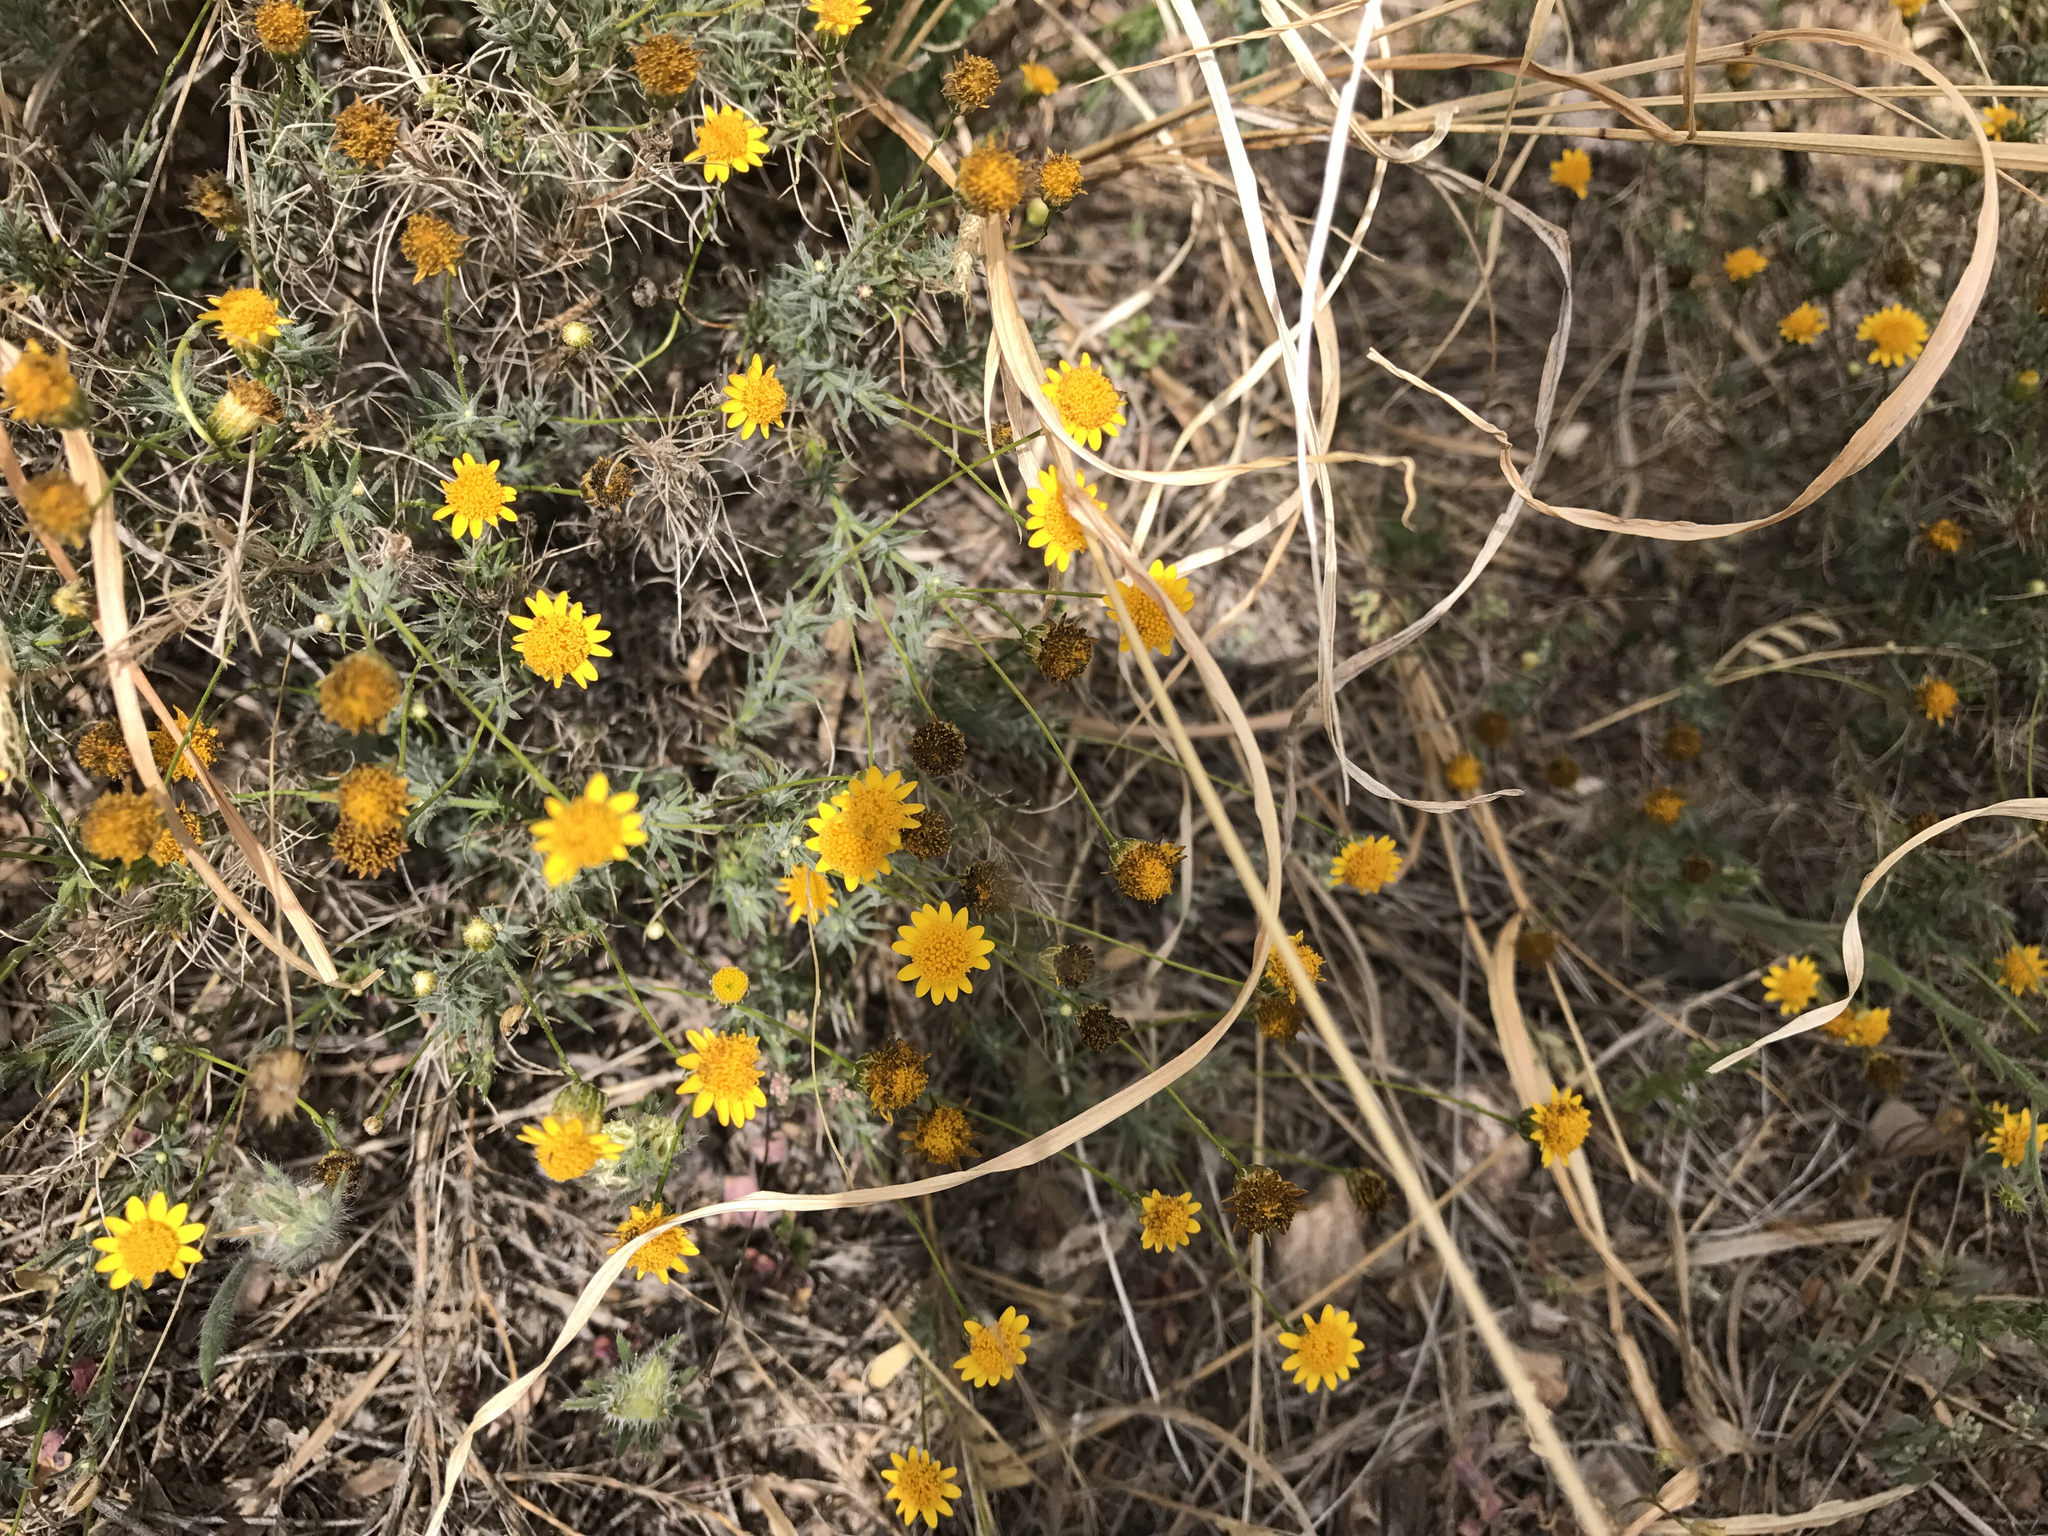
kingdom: Plantae
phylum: Tracheophyta
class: Magnoliopsida
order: Asterales
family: Asteraceae
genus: Thymophylla
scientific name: Thymophylla pentachaeta
